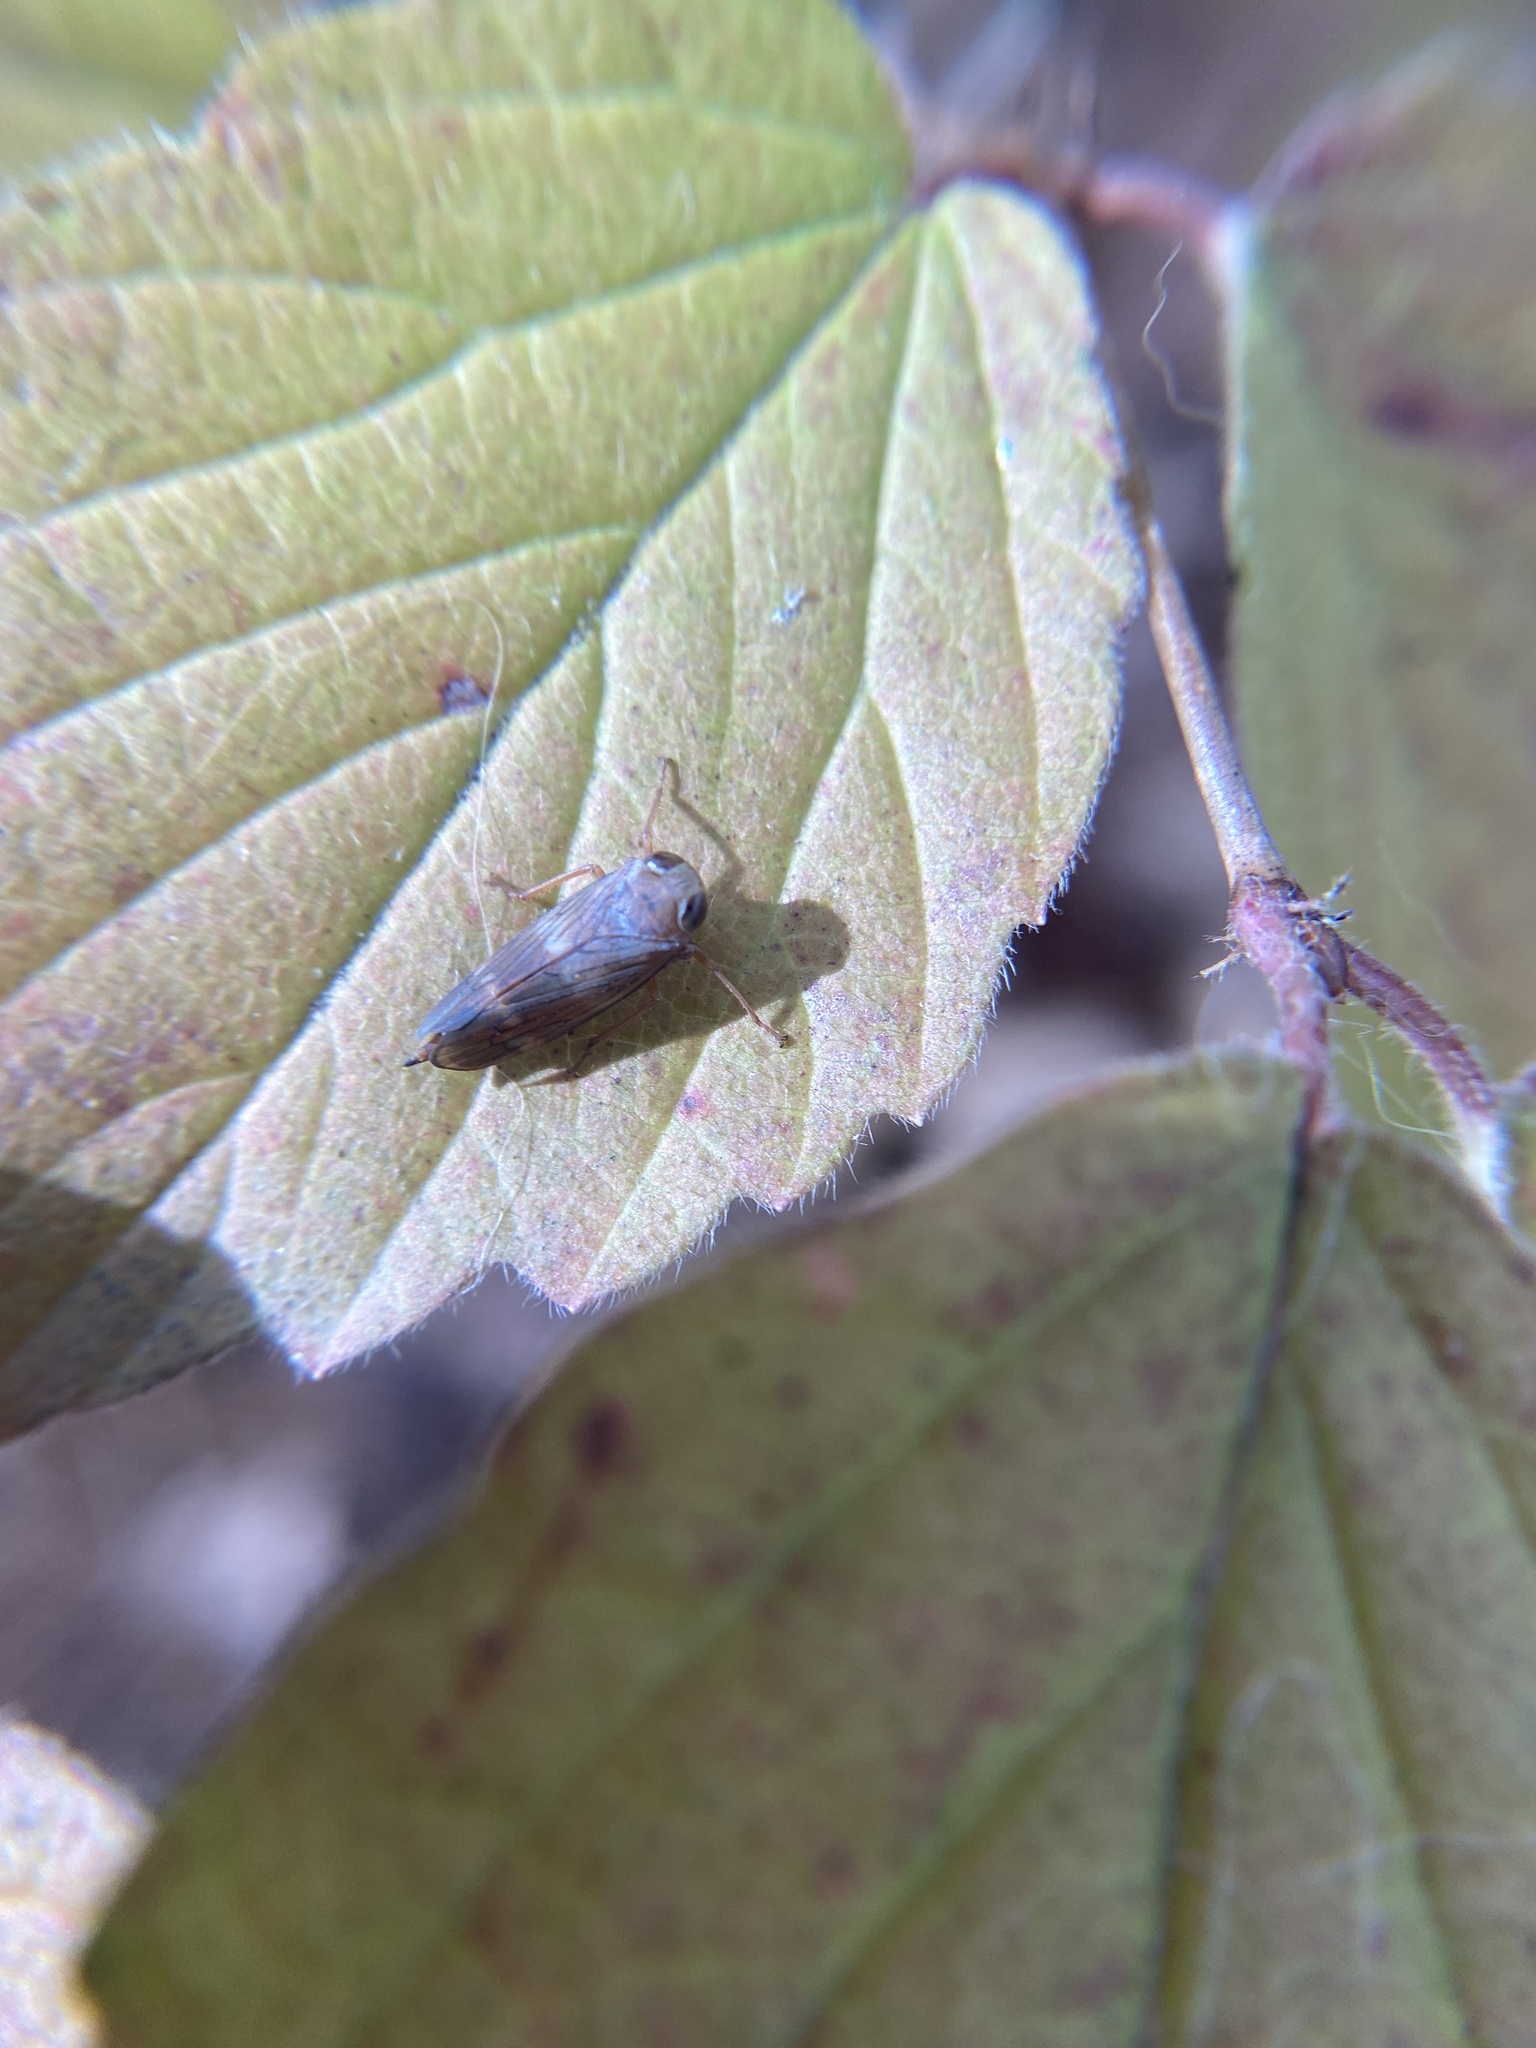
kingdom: Animalia
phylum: Arthropoda
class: Insecta
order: Hemiptera
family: Cicadellidae
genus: Jikradia
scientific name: Jikradia olitoria
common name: Coppery leafhopper
